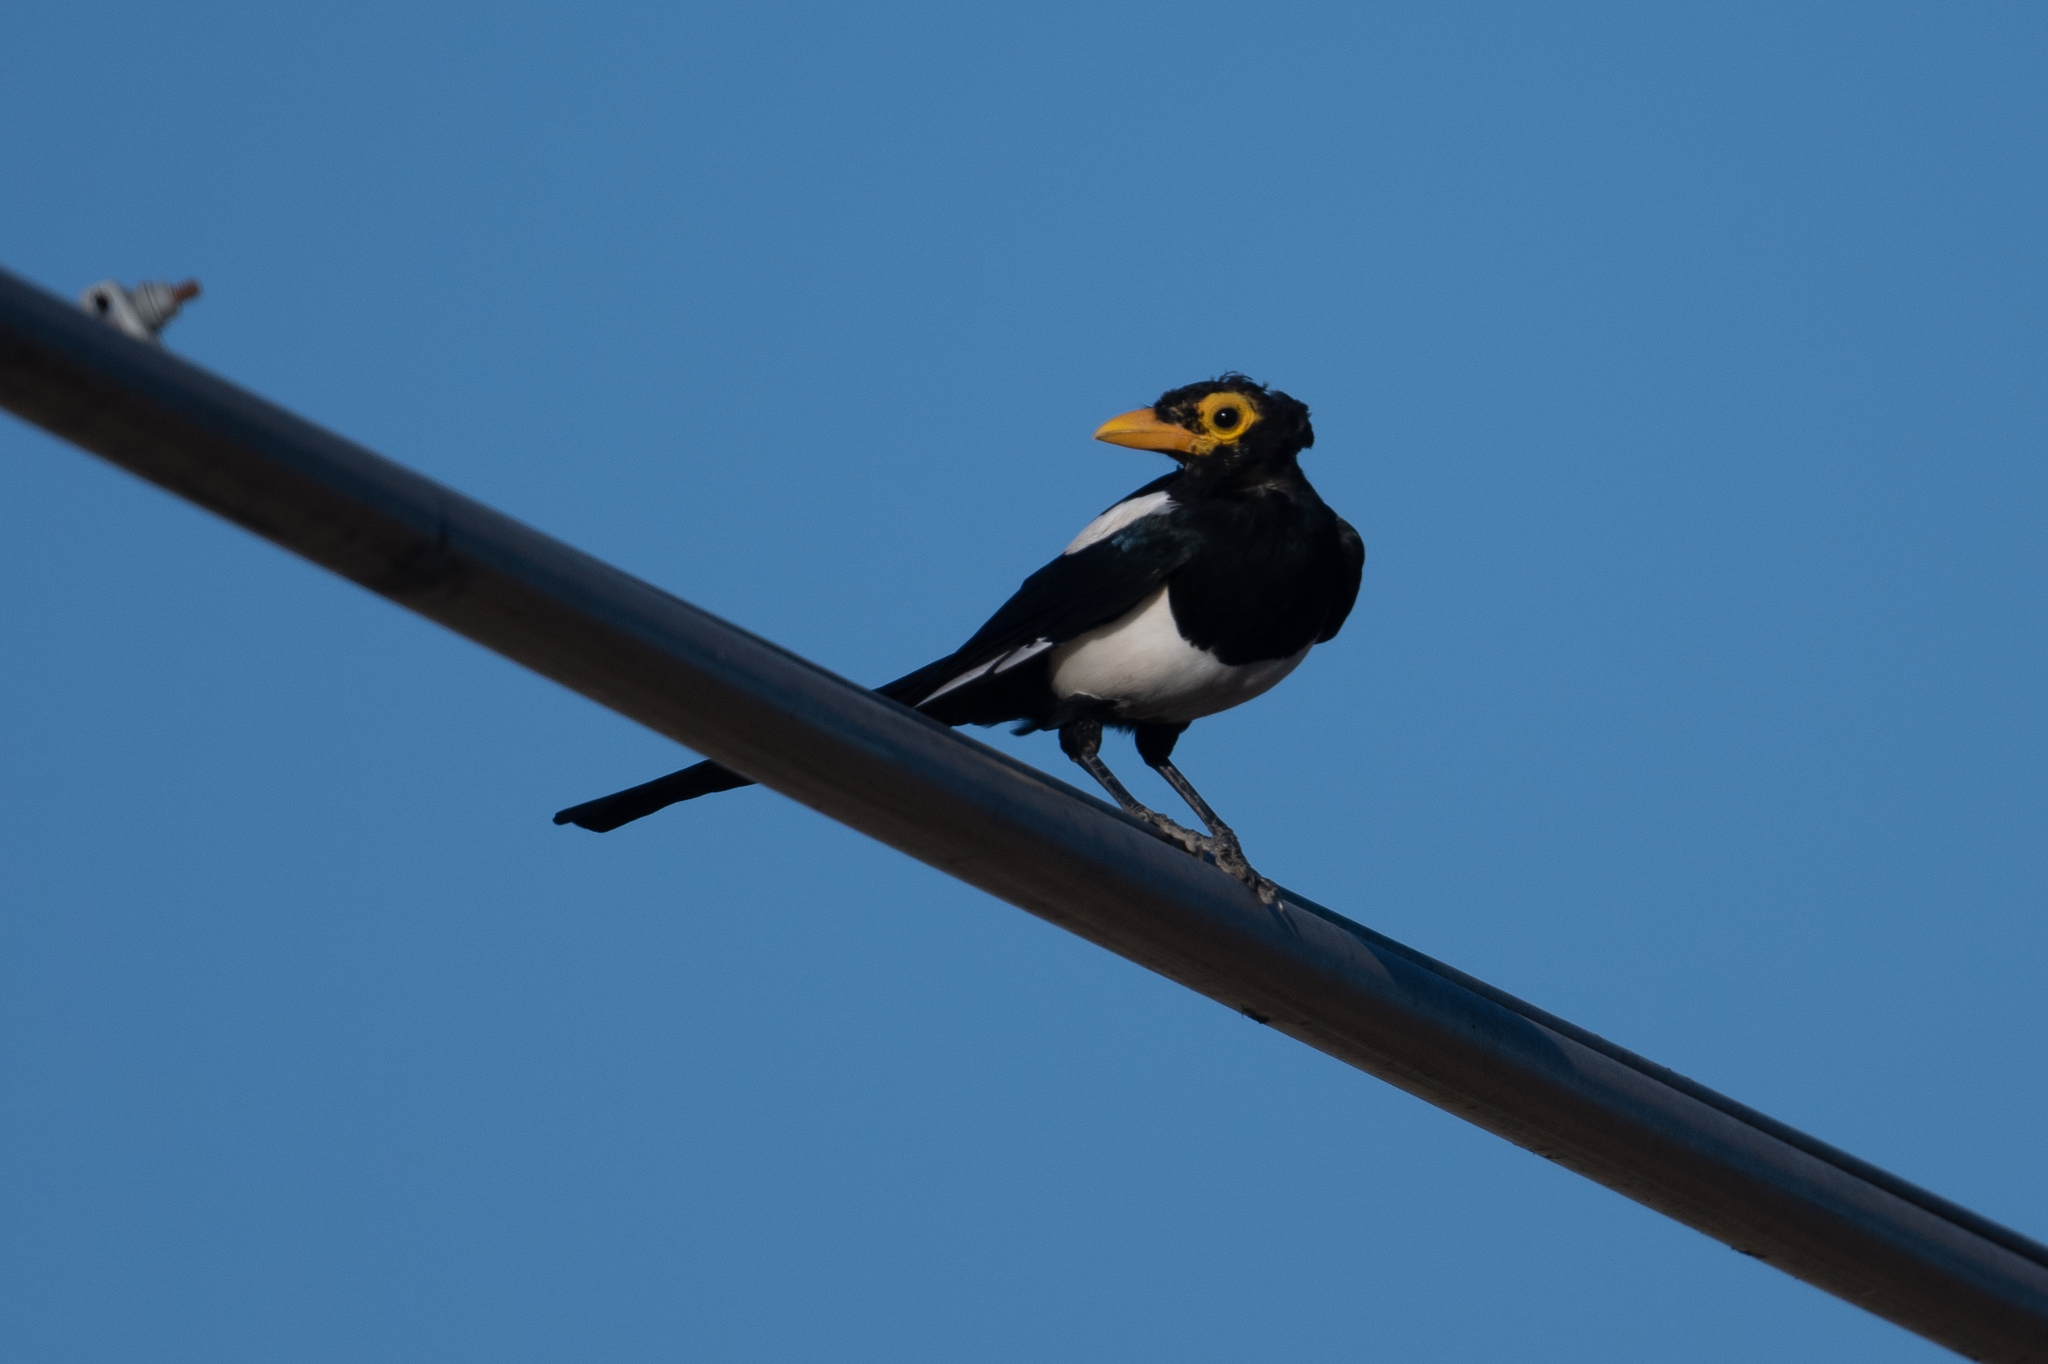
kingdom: Animalia
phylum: Chordata
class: Aves
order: Passeriformes
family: Corvidae
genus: Pica
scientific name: Pica nuttalli
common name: Yellow-billed magpie
